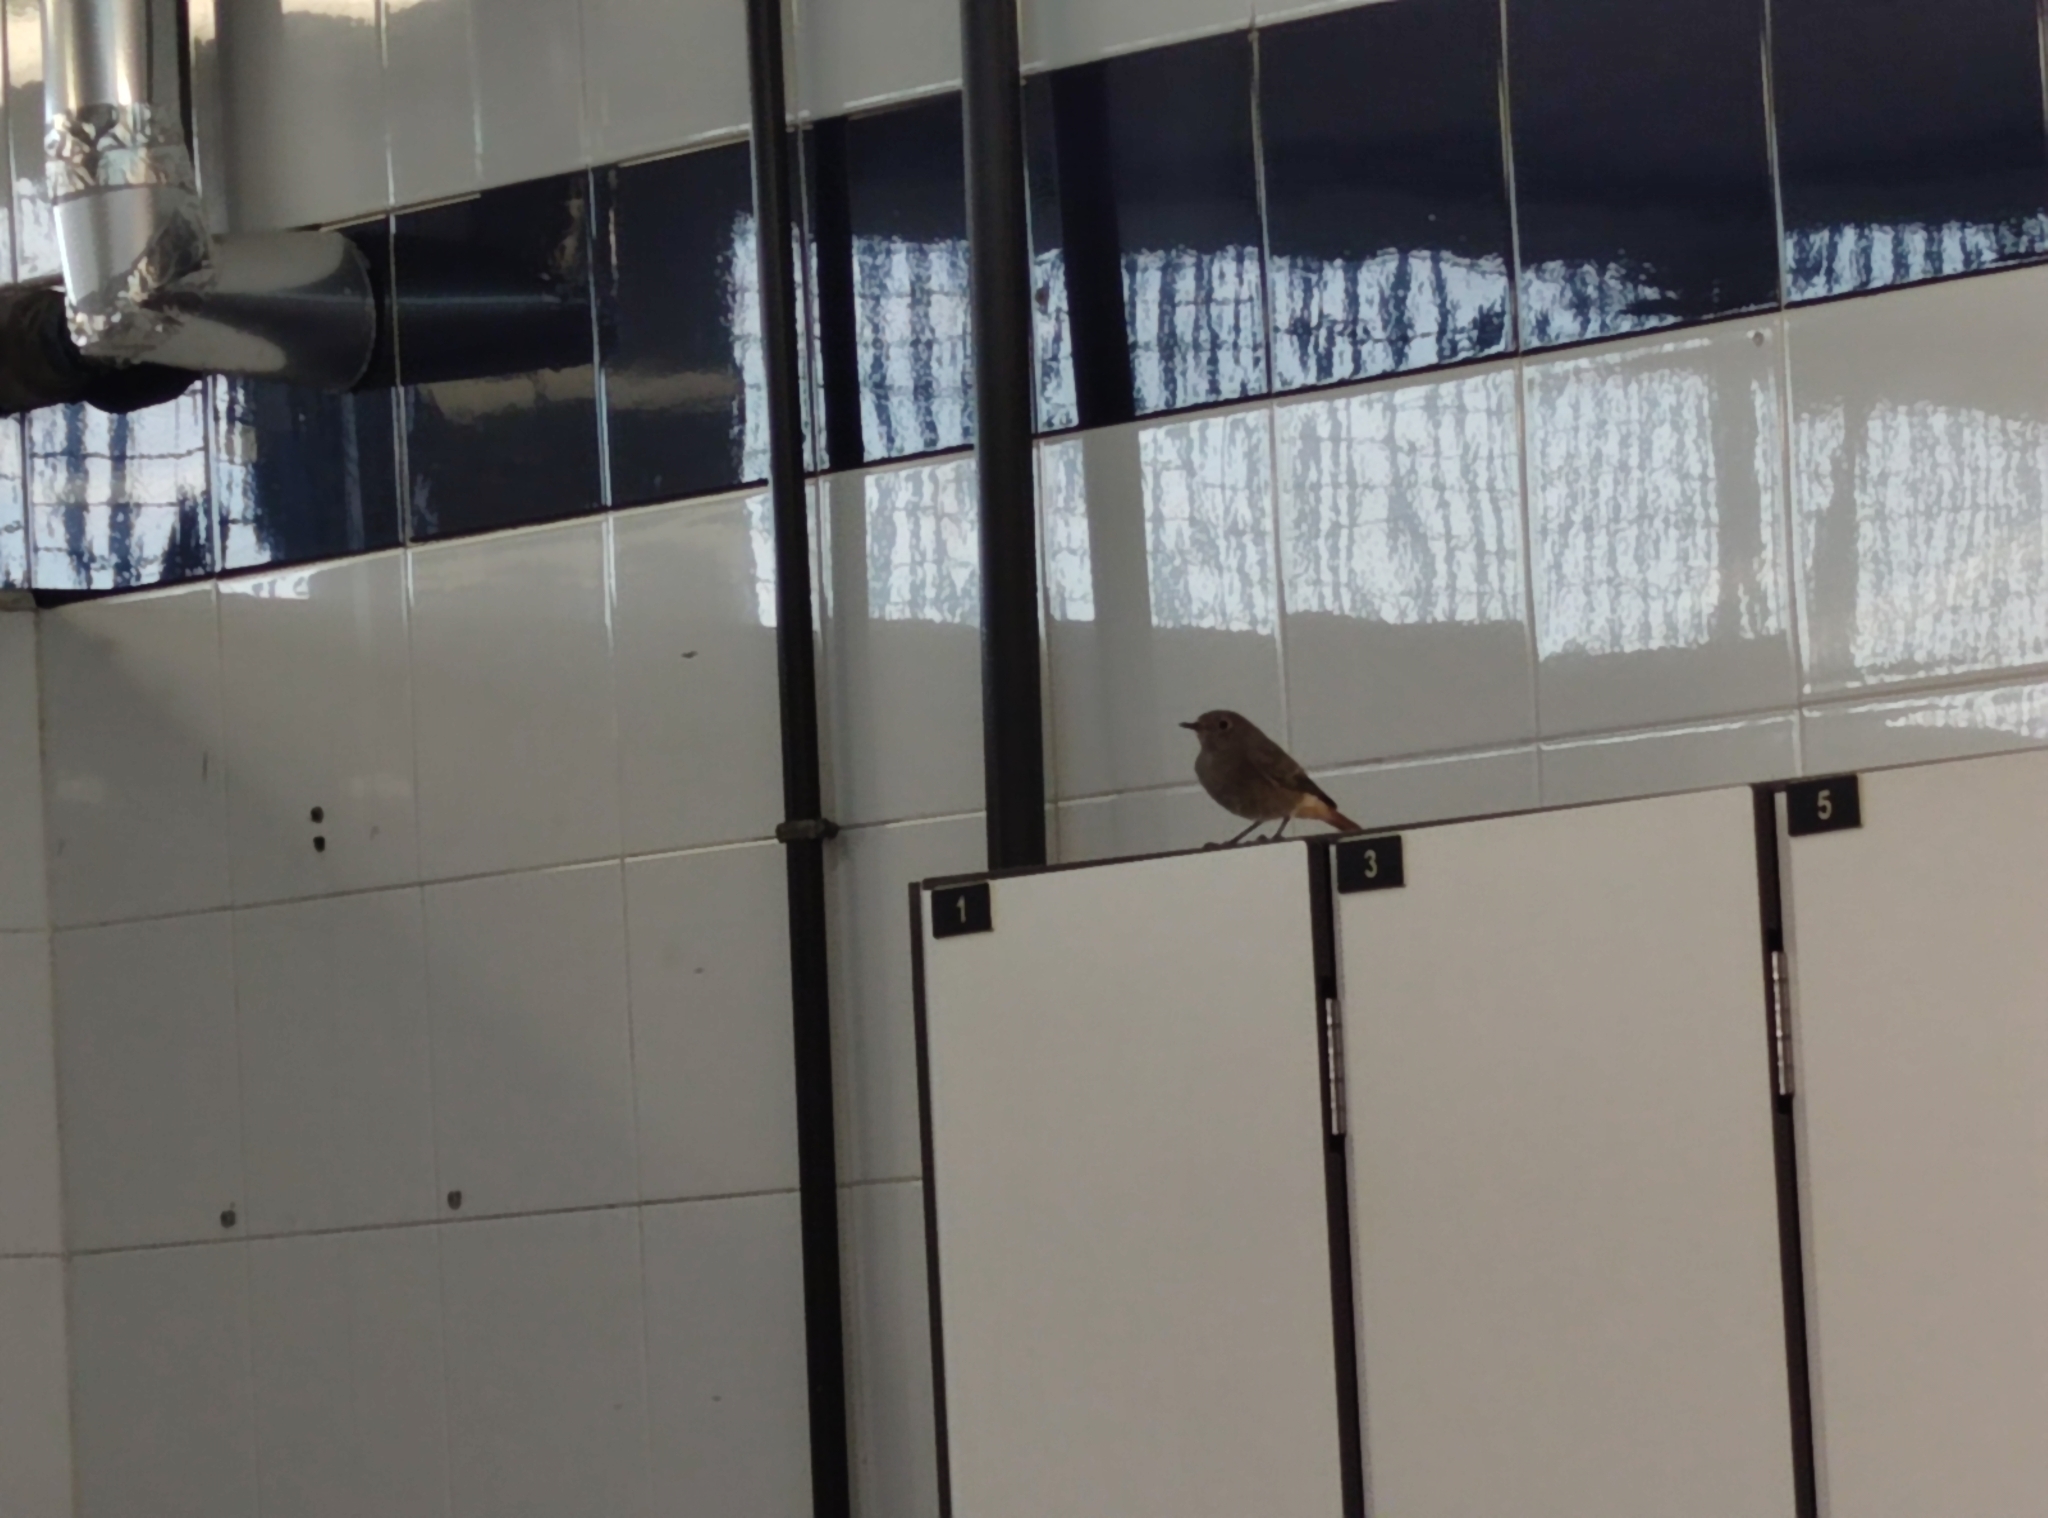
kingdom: Animalia
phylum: Chordata
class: Aves
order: Passeriformes
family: Muscicapidae
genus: Phoenicurus
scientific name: Phoenicurus ochruros
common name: Black redstart
